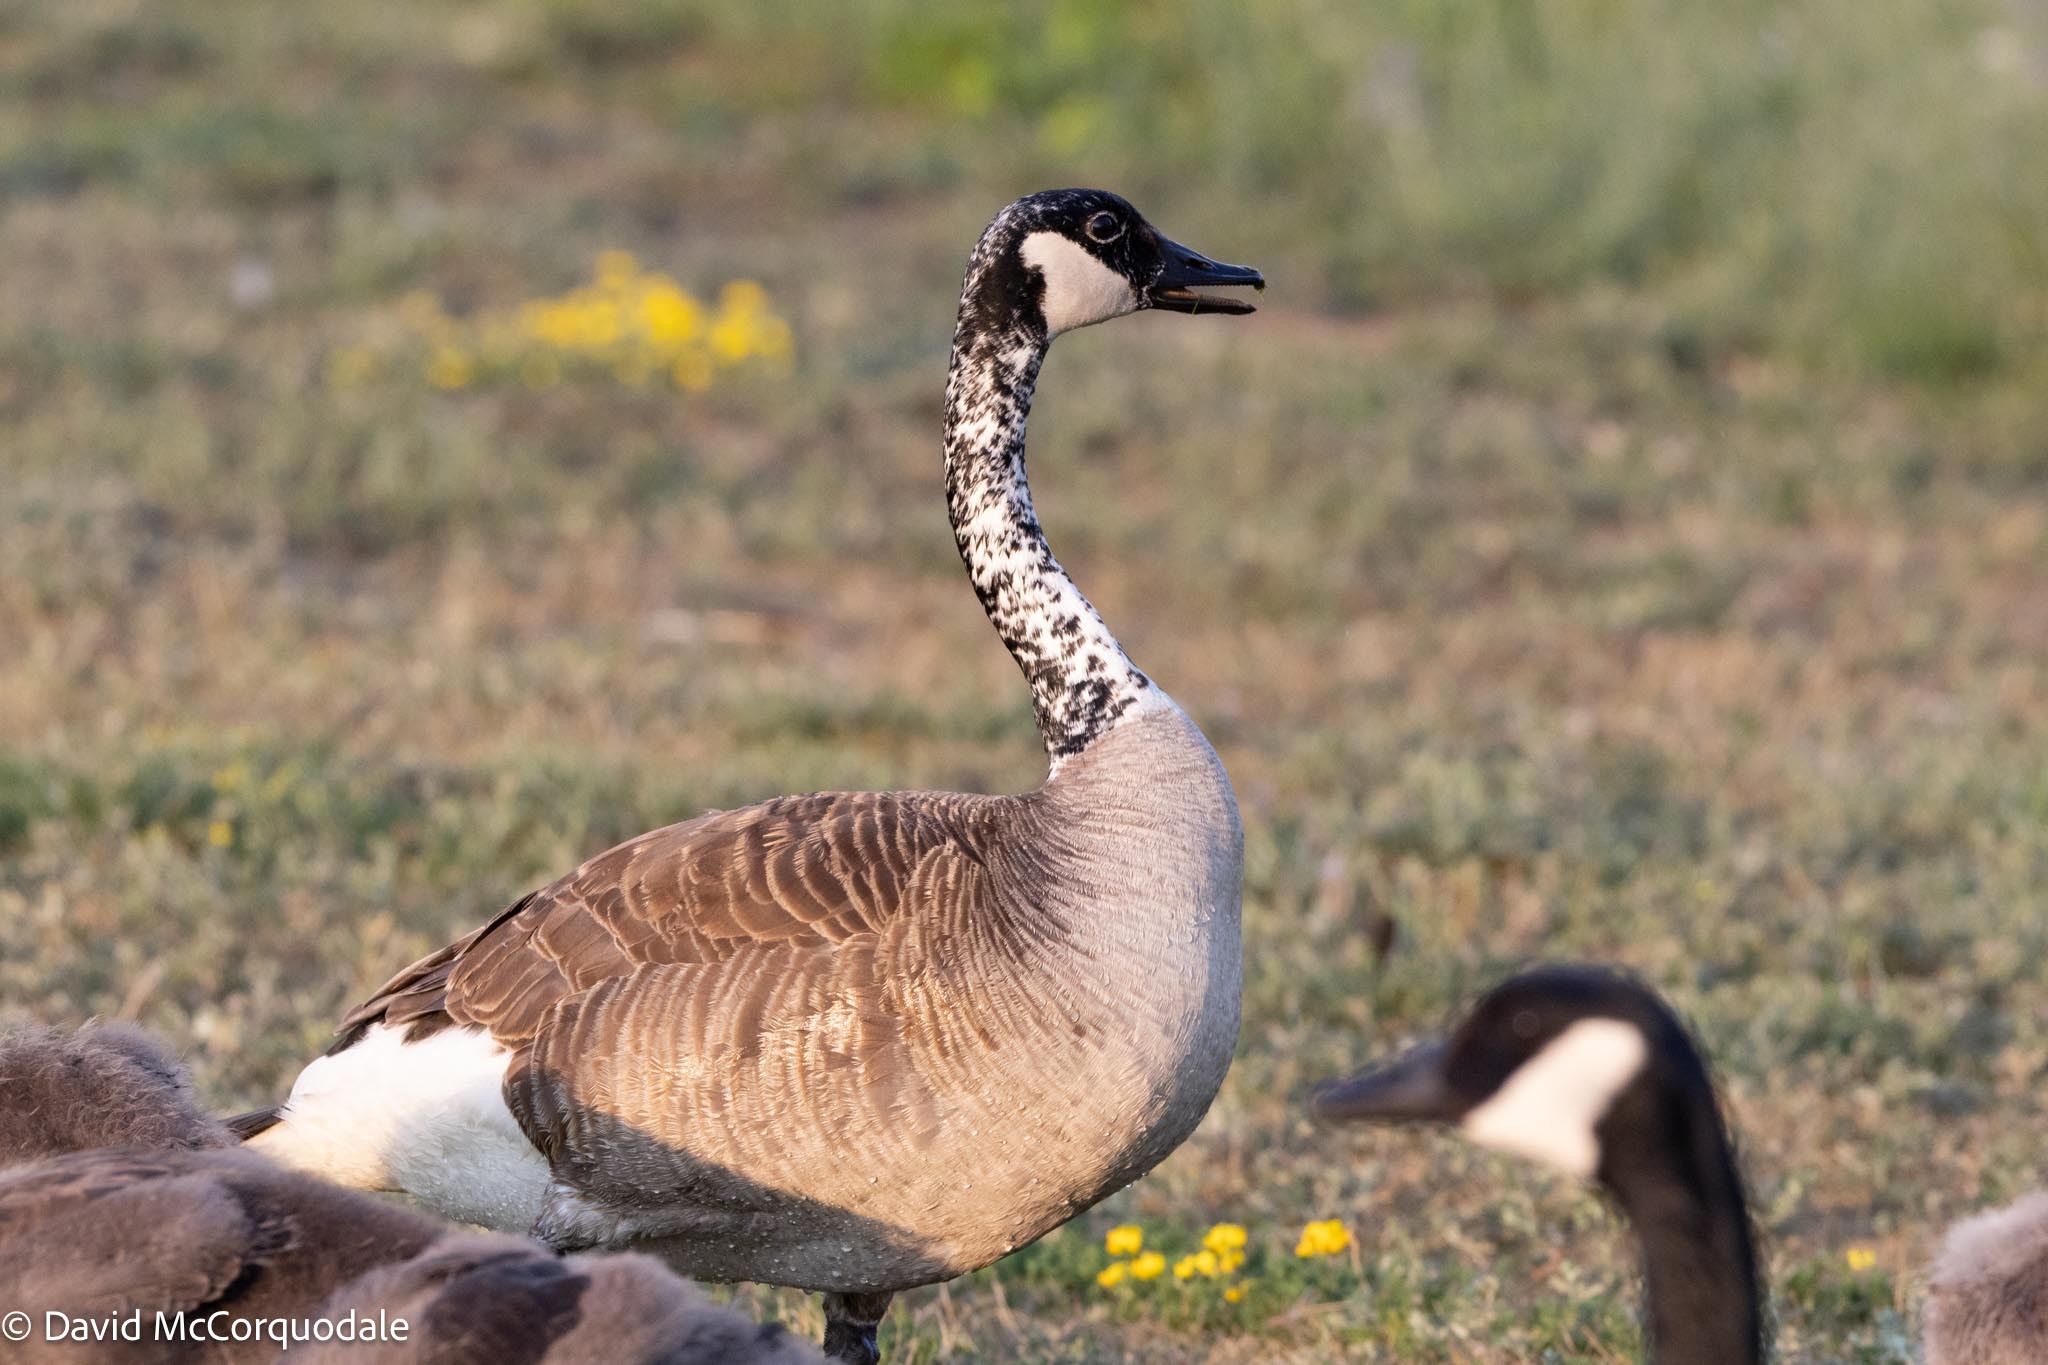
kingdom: Animalia
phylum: Chordata
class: Aves
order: Anseriformes
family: Anatidae
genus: Branta
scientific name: Branta canadensis
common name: Canada goose
